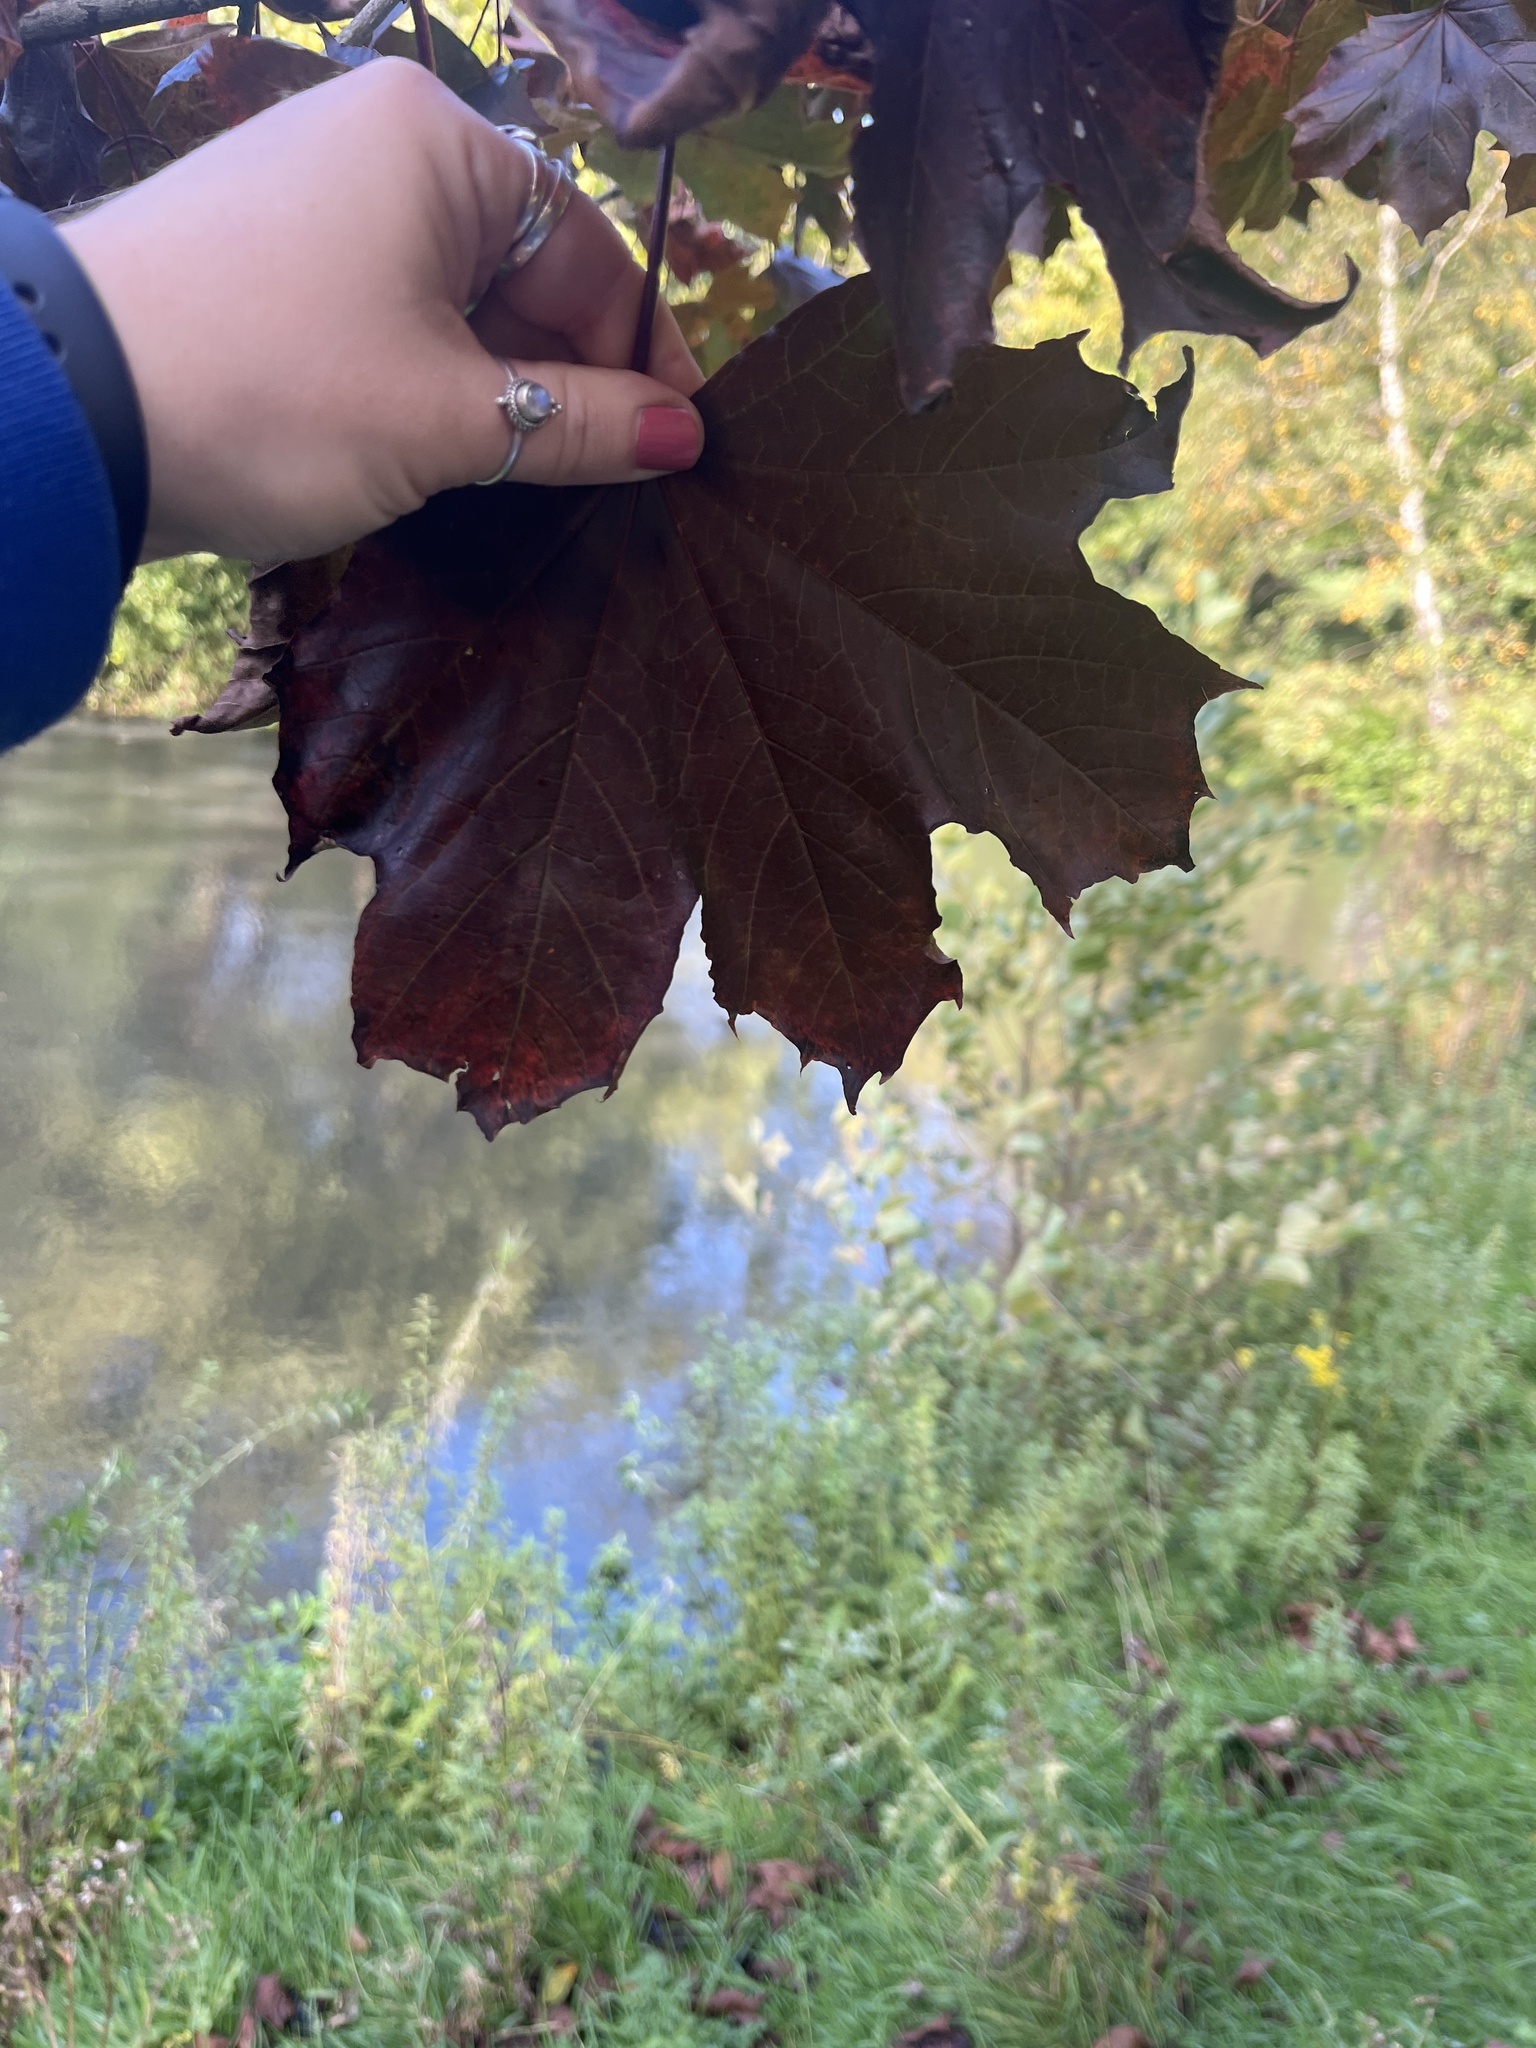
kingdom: Plantae
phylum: Tracheophyta
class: Magnoliopsida
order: Sapindales
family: Sapindaceae
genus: Acer
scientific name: Acer platanoides
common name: Norway maple
